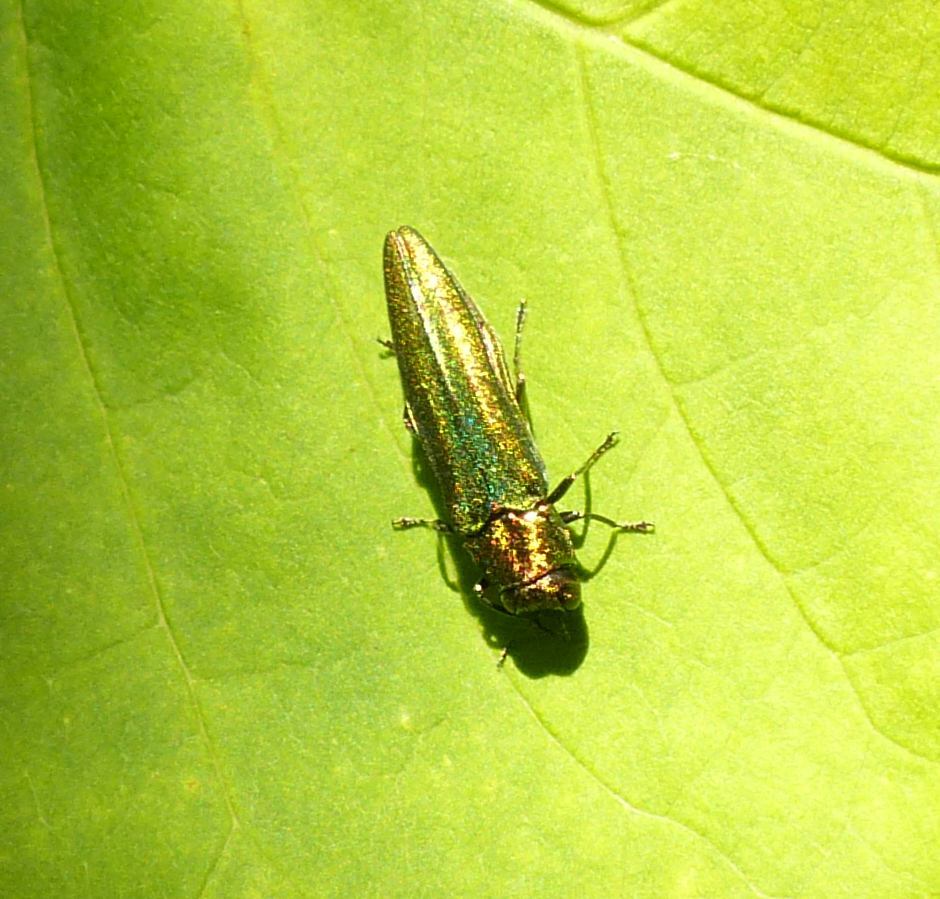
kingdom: Animalia
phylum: Arthropoda
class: Insecta
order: Coleoptera
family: Buprestidae
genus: Agrilus
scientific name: Agrilus planipennis
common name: Emerald ash borer
